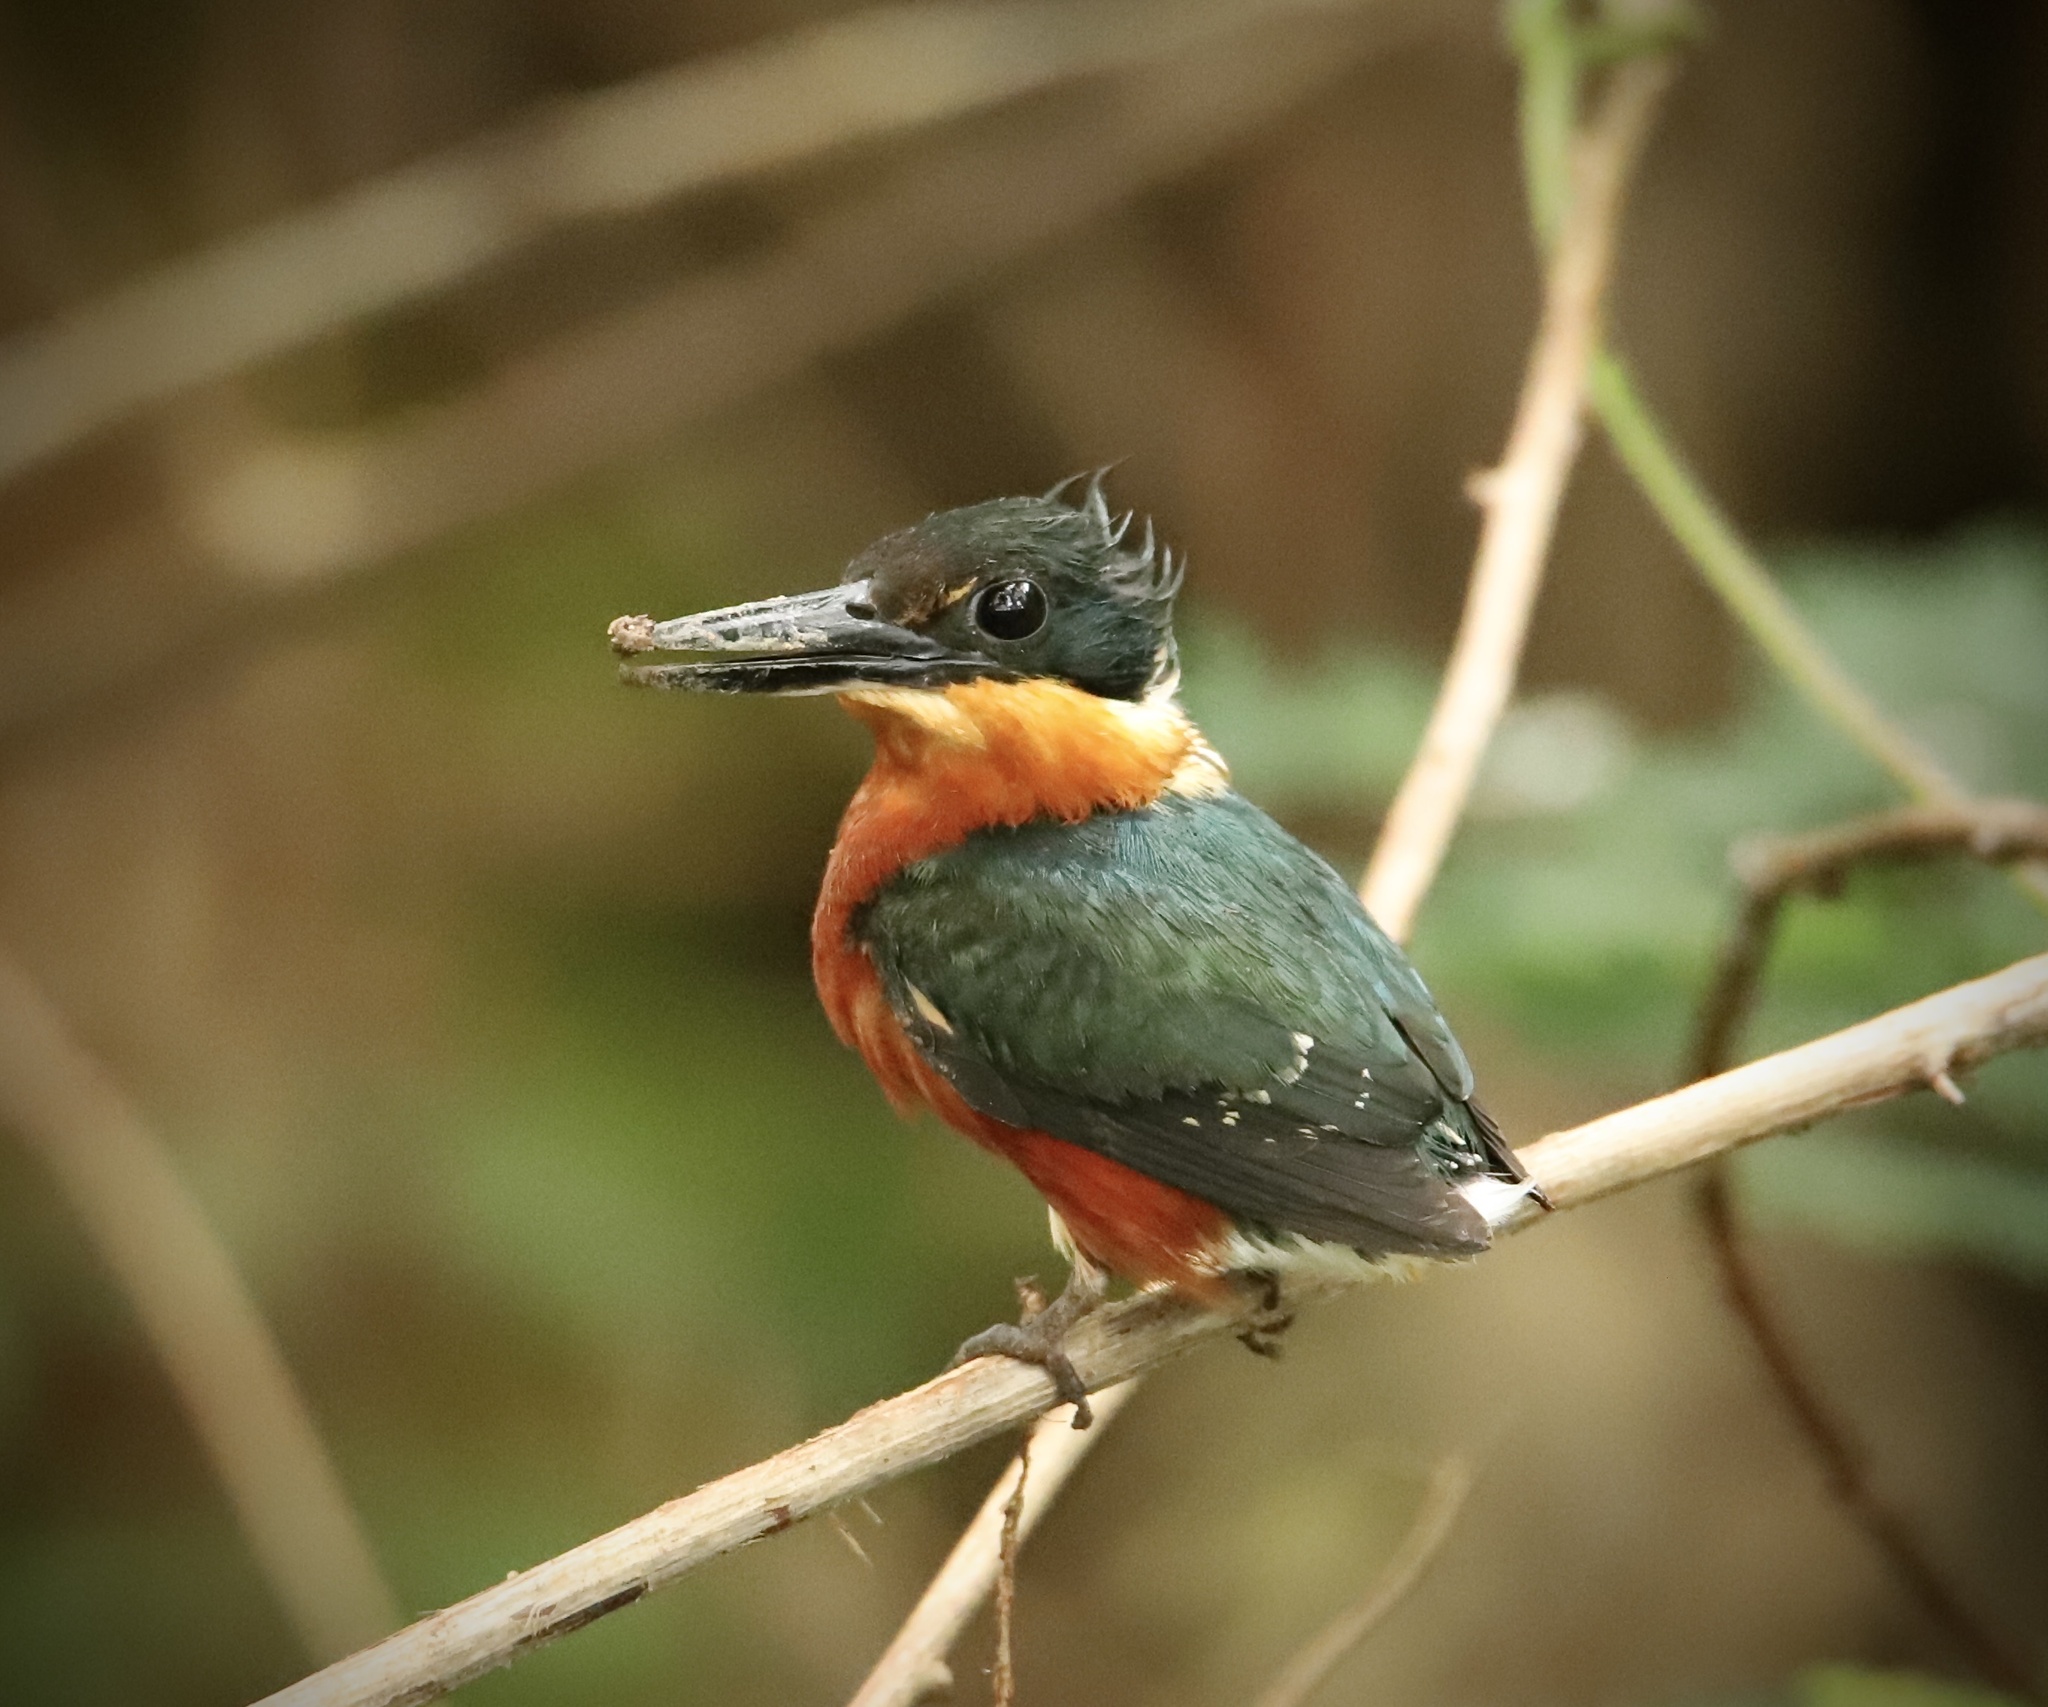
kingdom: Animalia
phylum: Chordata
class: Aves
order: Coraciiformes
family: Alcedinidae
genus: Chloroceryle
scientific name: Chloroceryle aenea
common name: American pygmy kingfisher
